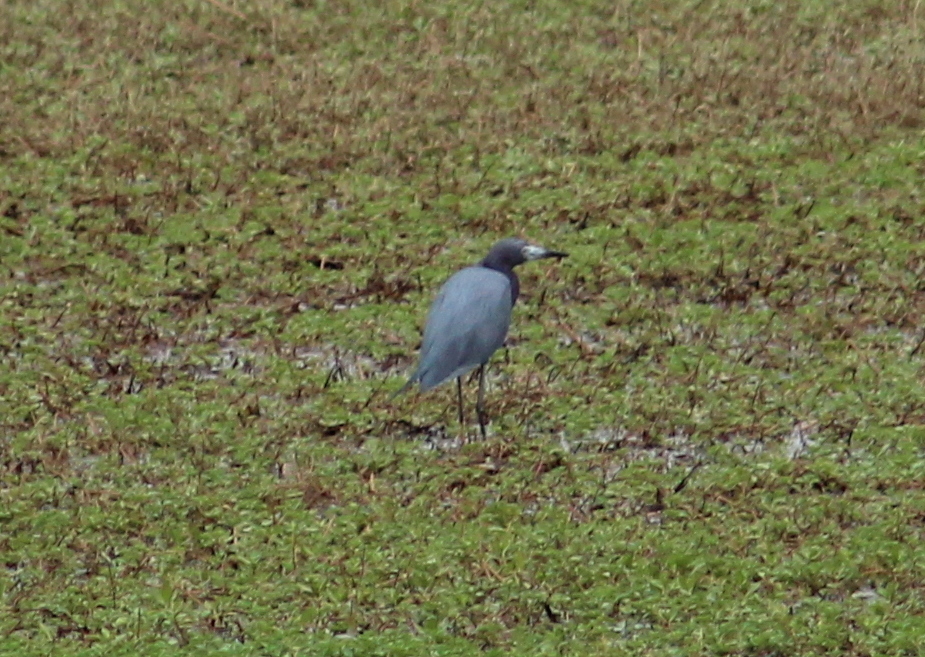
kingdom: Animalia
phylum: Chordata
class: Aves
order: Pelecaniformes
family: Ardeidae
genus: Egretta
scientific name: Egretta caerulea
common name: Little blue heron
